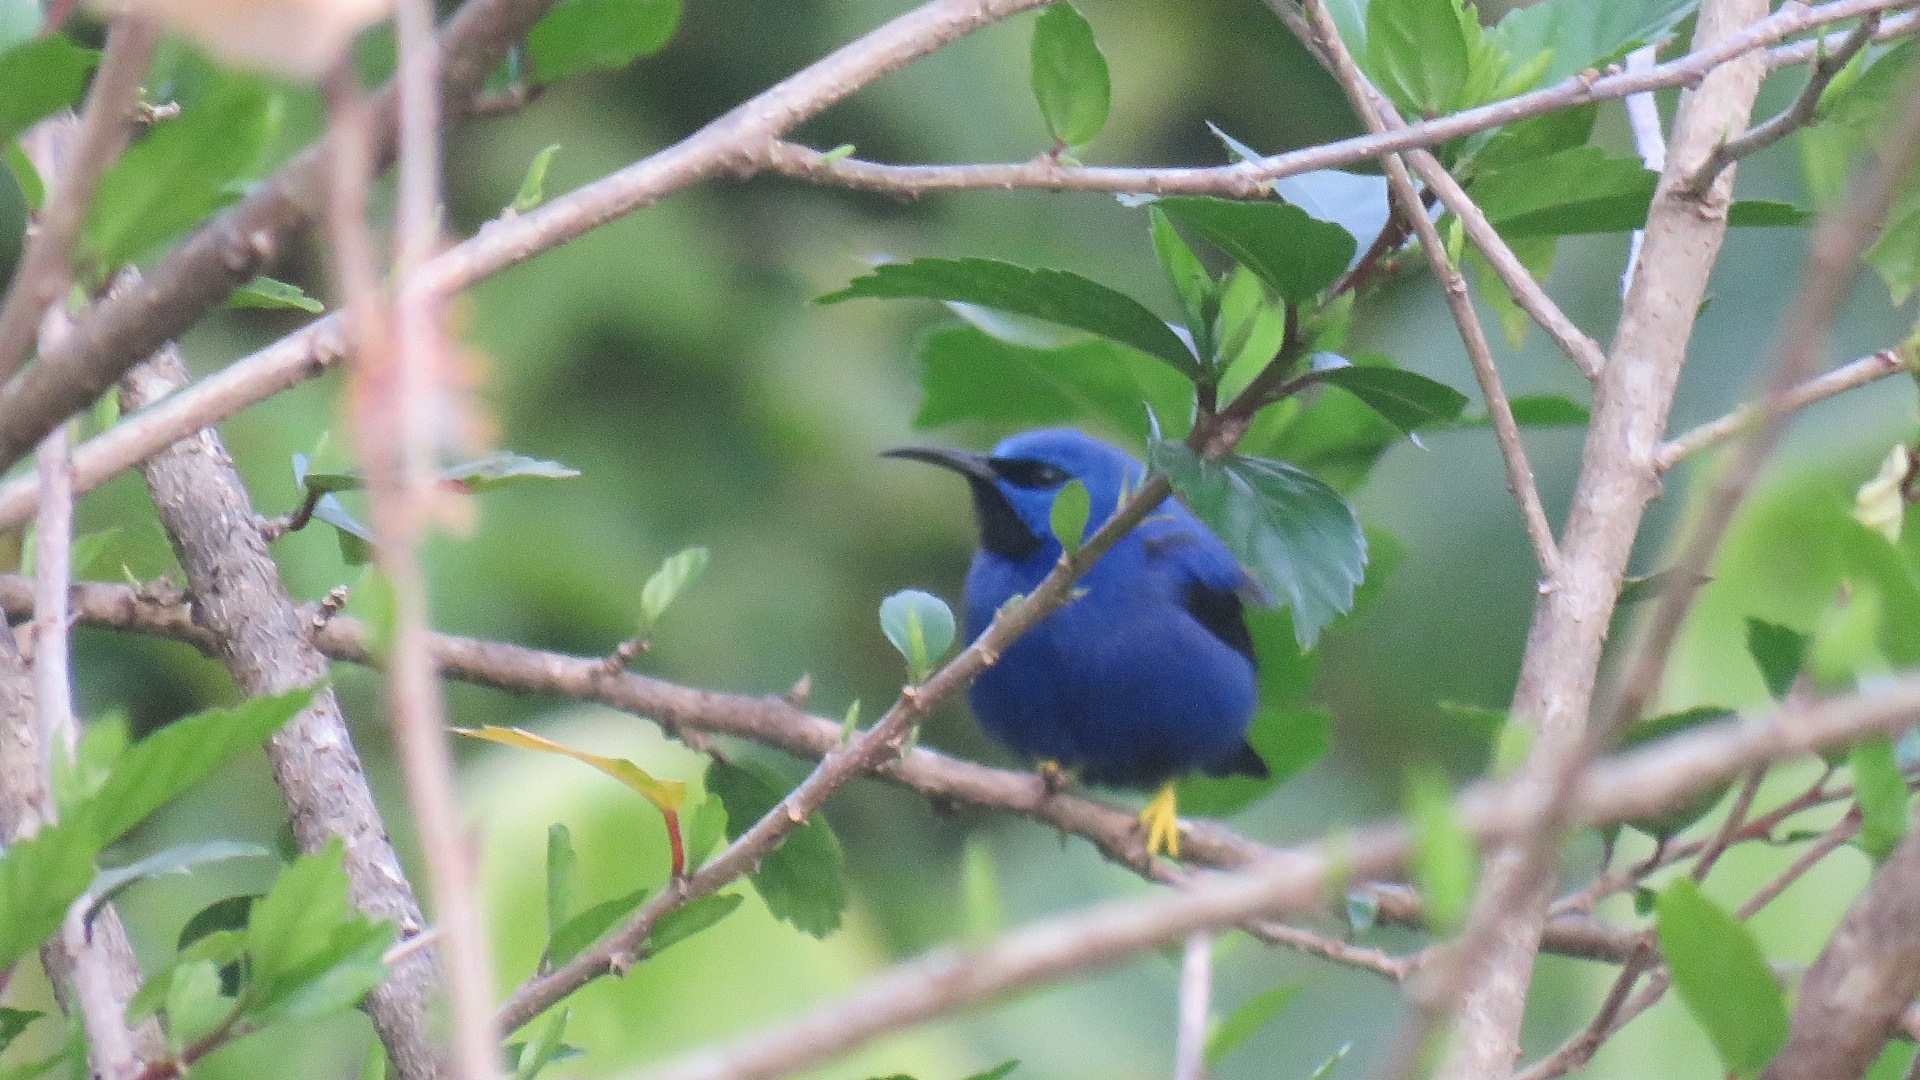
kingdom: Animalia
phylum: Chordata
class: Aves
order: Passeriformes
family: Thraupidae
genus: Cyanerpes
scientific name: Cyanerpes lucidus
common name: Shining honeycreeper
